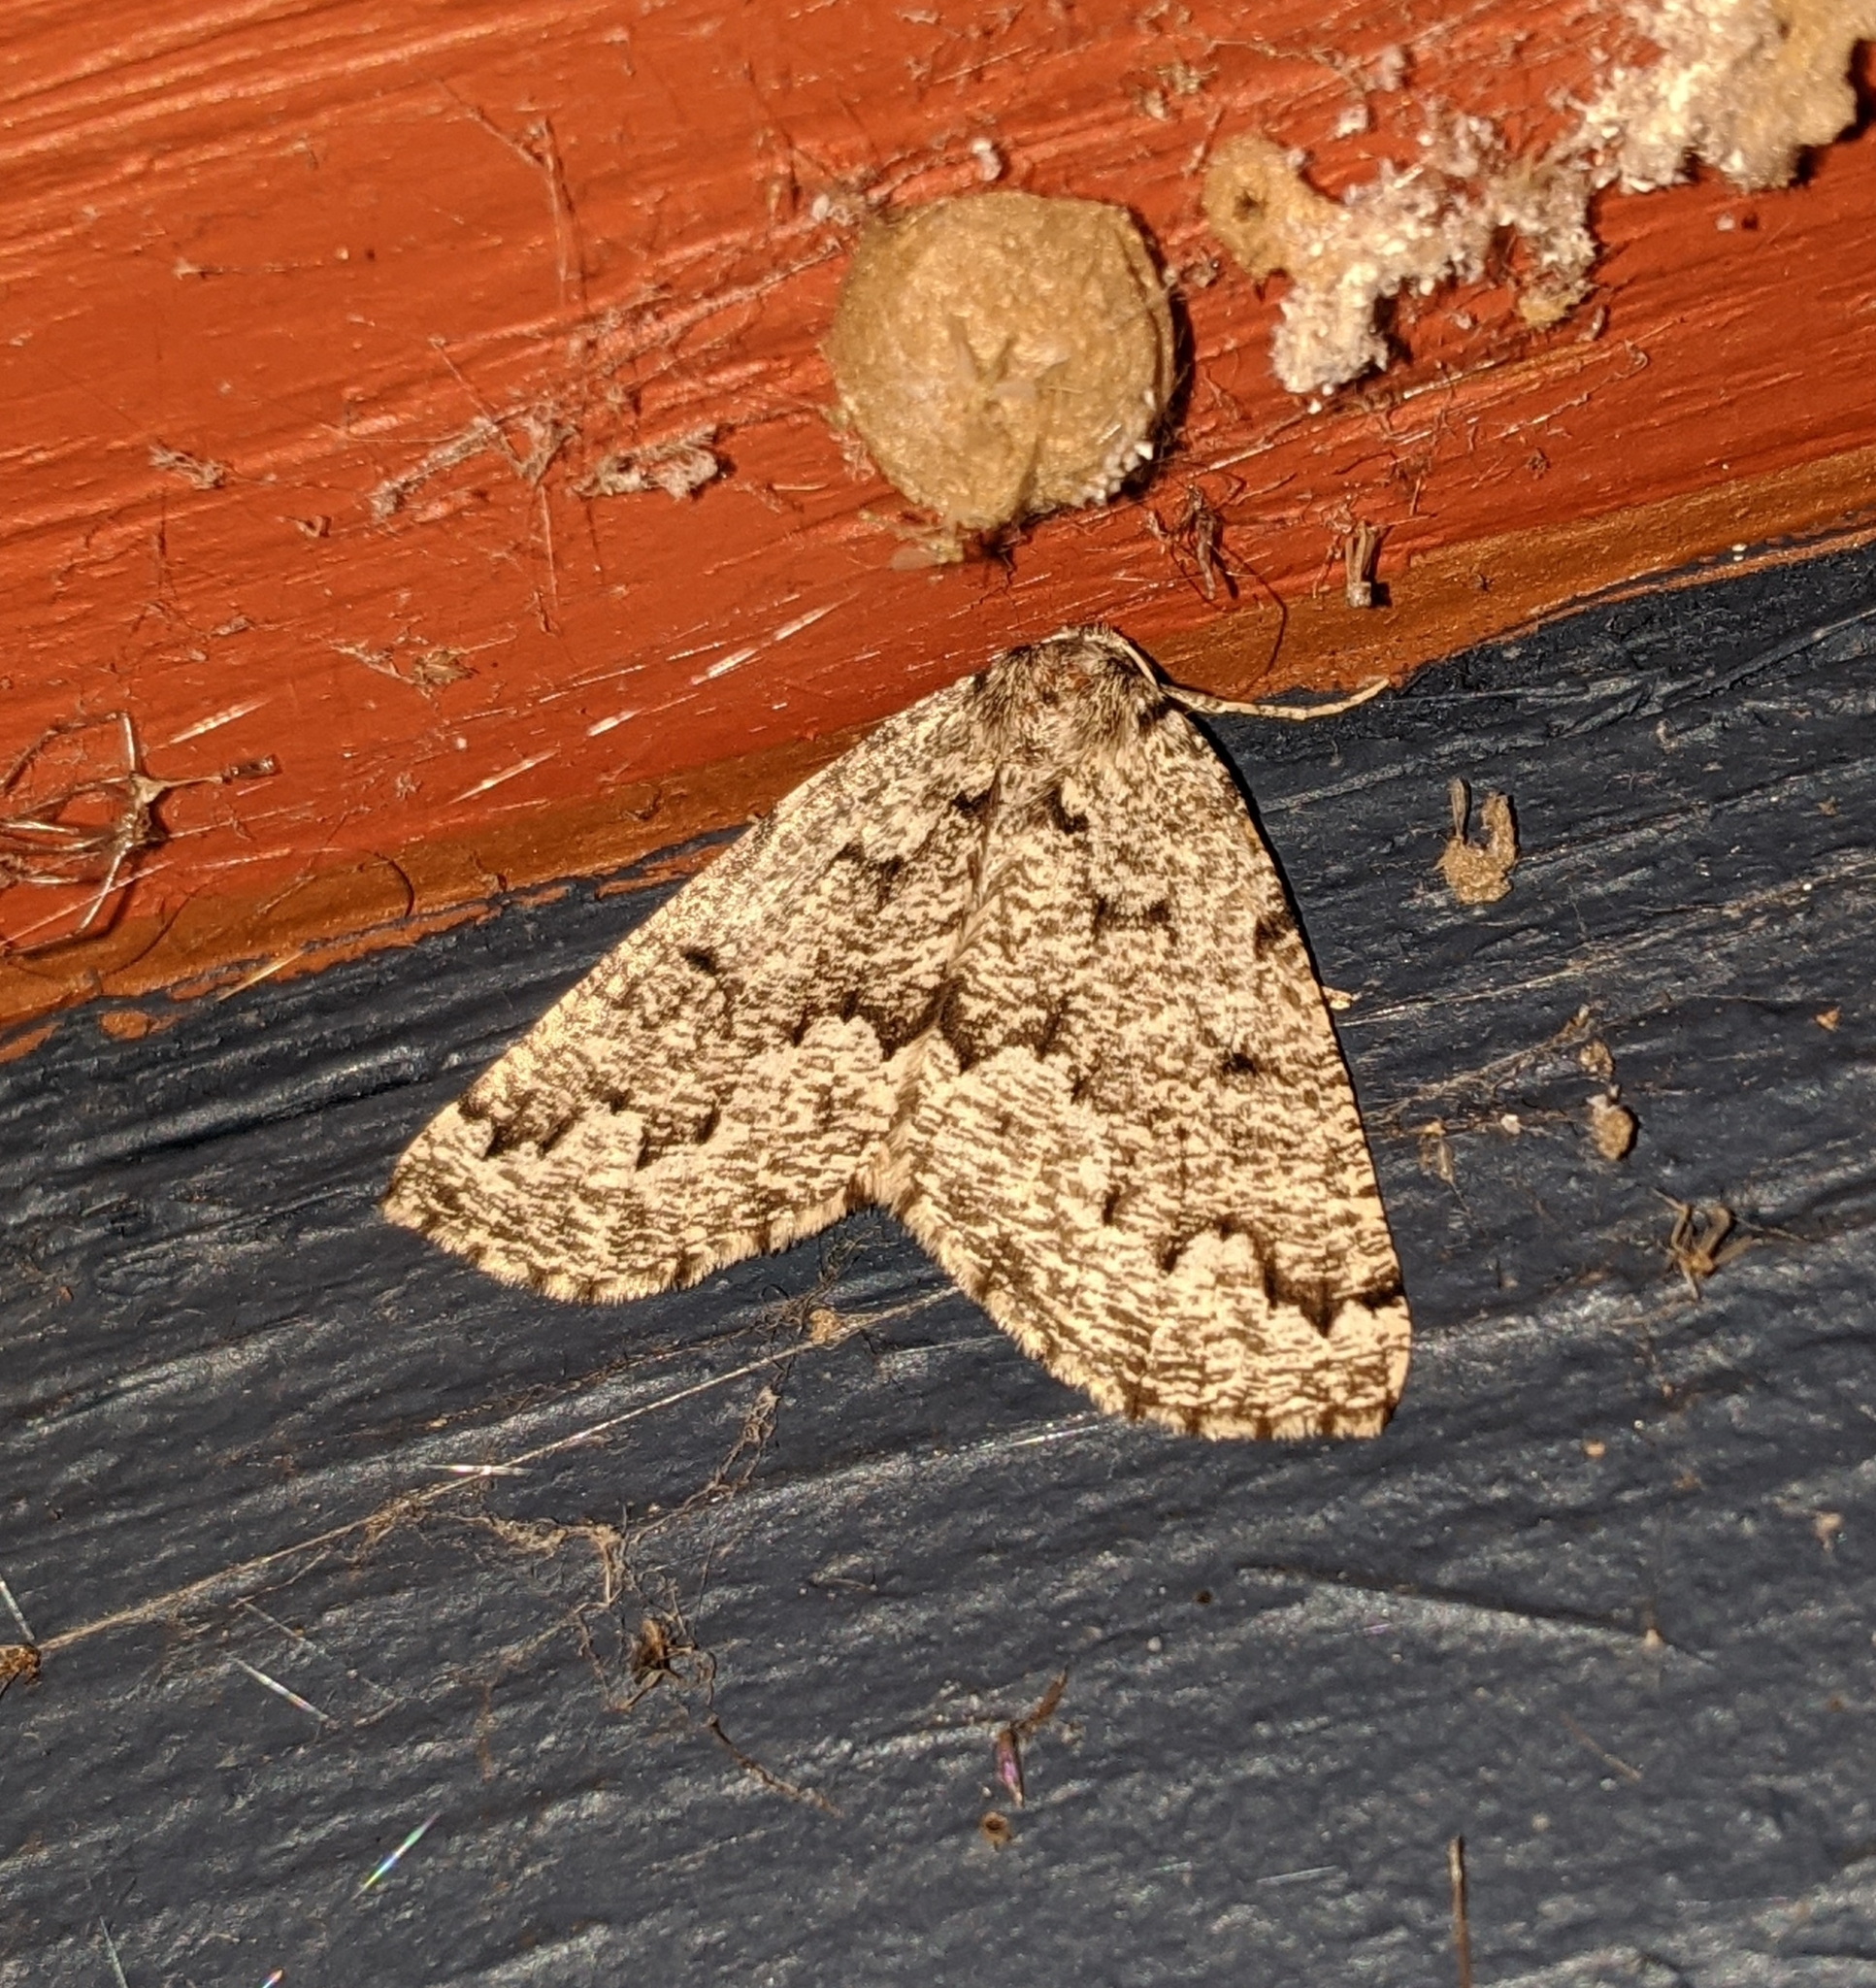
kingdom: Animalia
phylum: Arthropoda
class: Insecta
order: Lepidoptera
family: Geometridae
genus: Sabulodes
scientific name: Sabulodes
